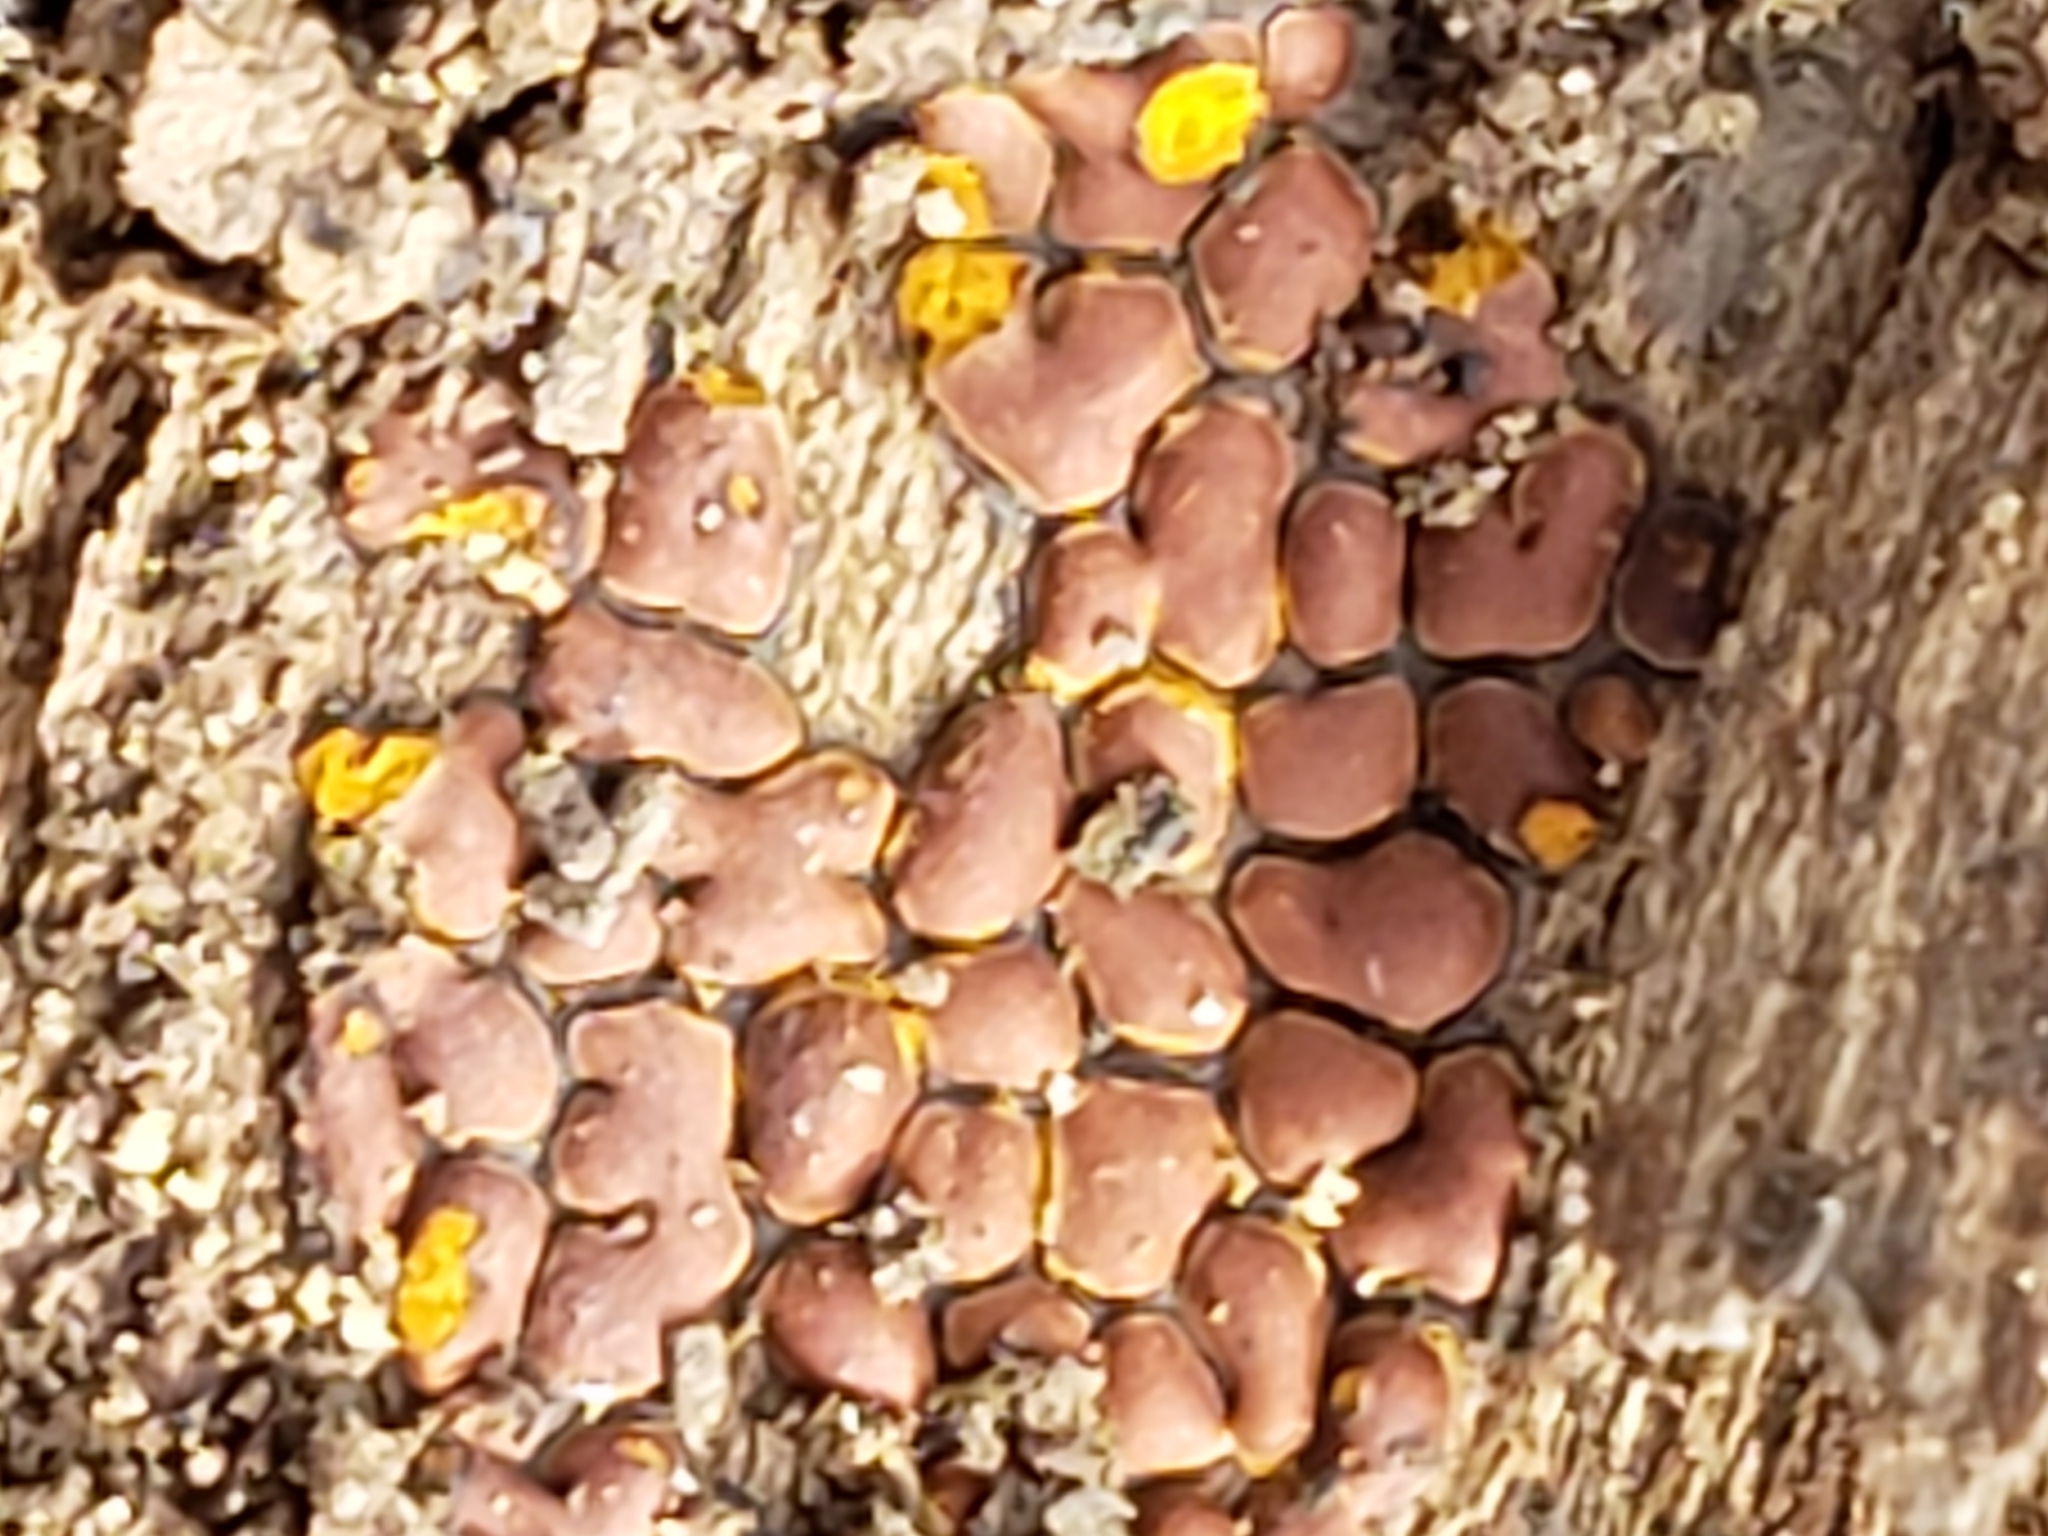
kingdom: Protozoa
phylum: Mycetozoa
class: Myxomycetes
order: Trichiales
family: Trichiaceae
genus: Perichaena
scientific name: Perichaena depressa
